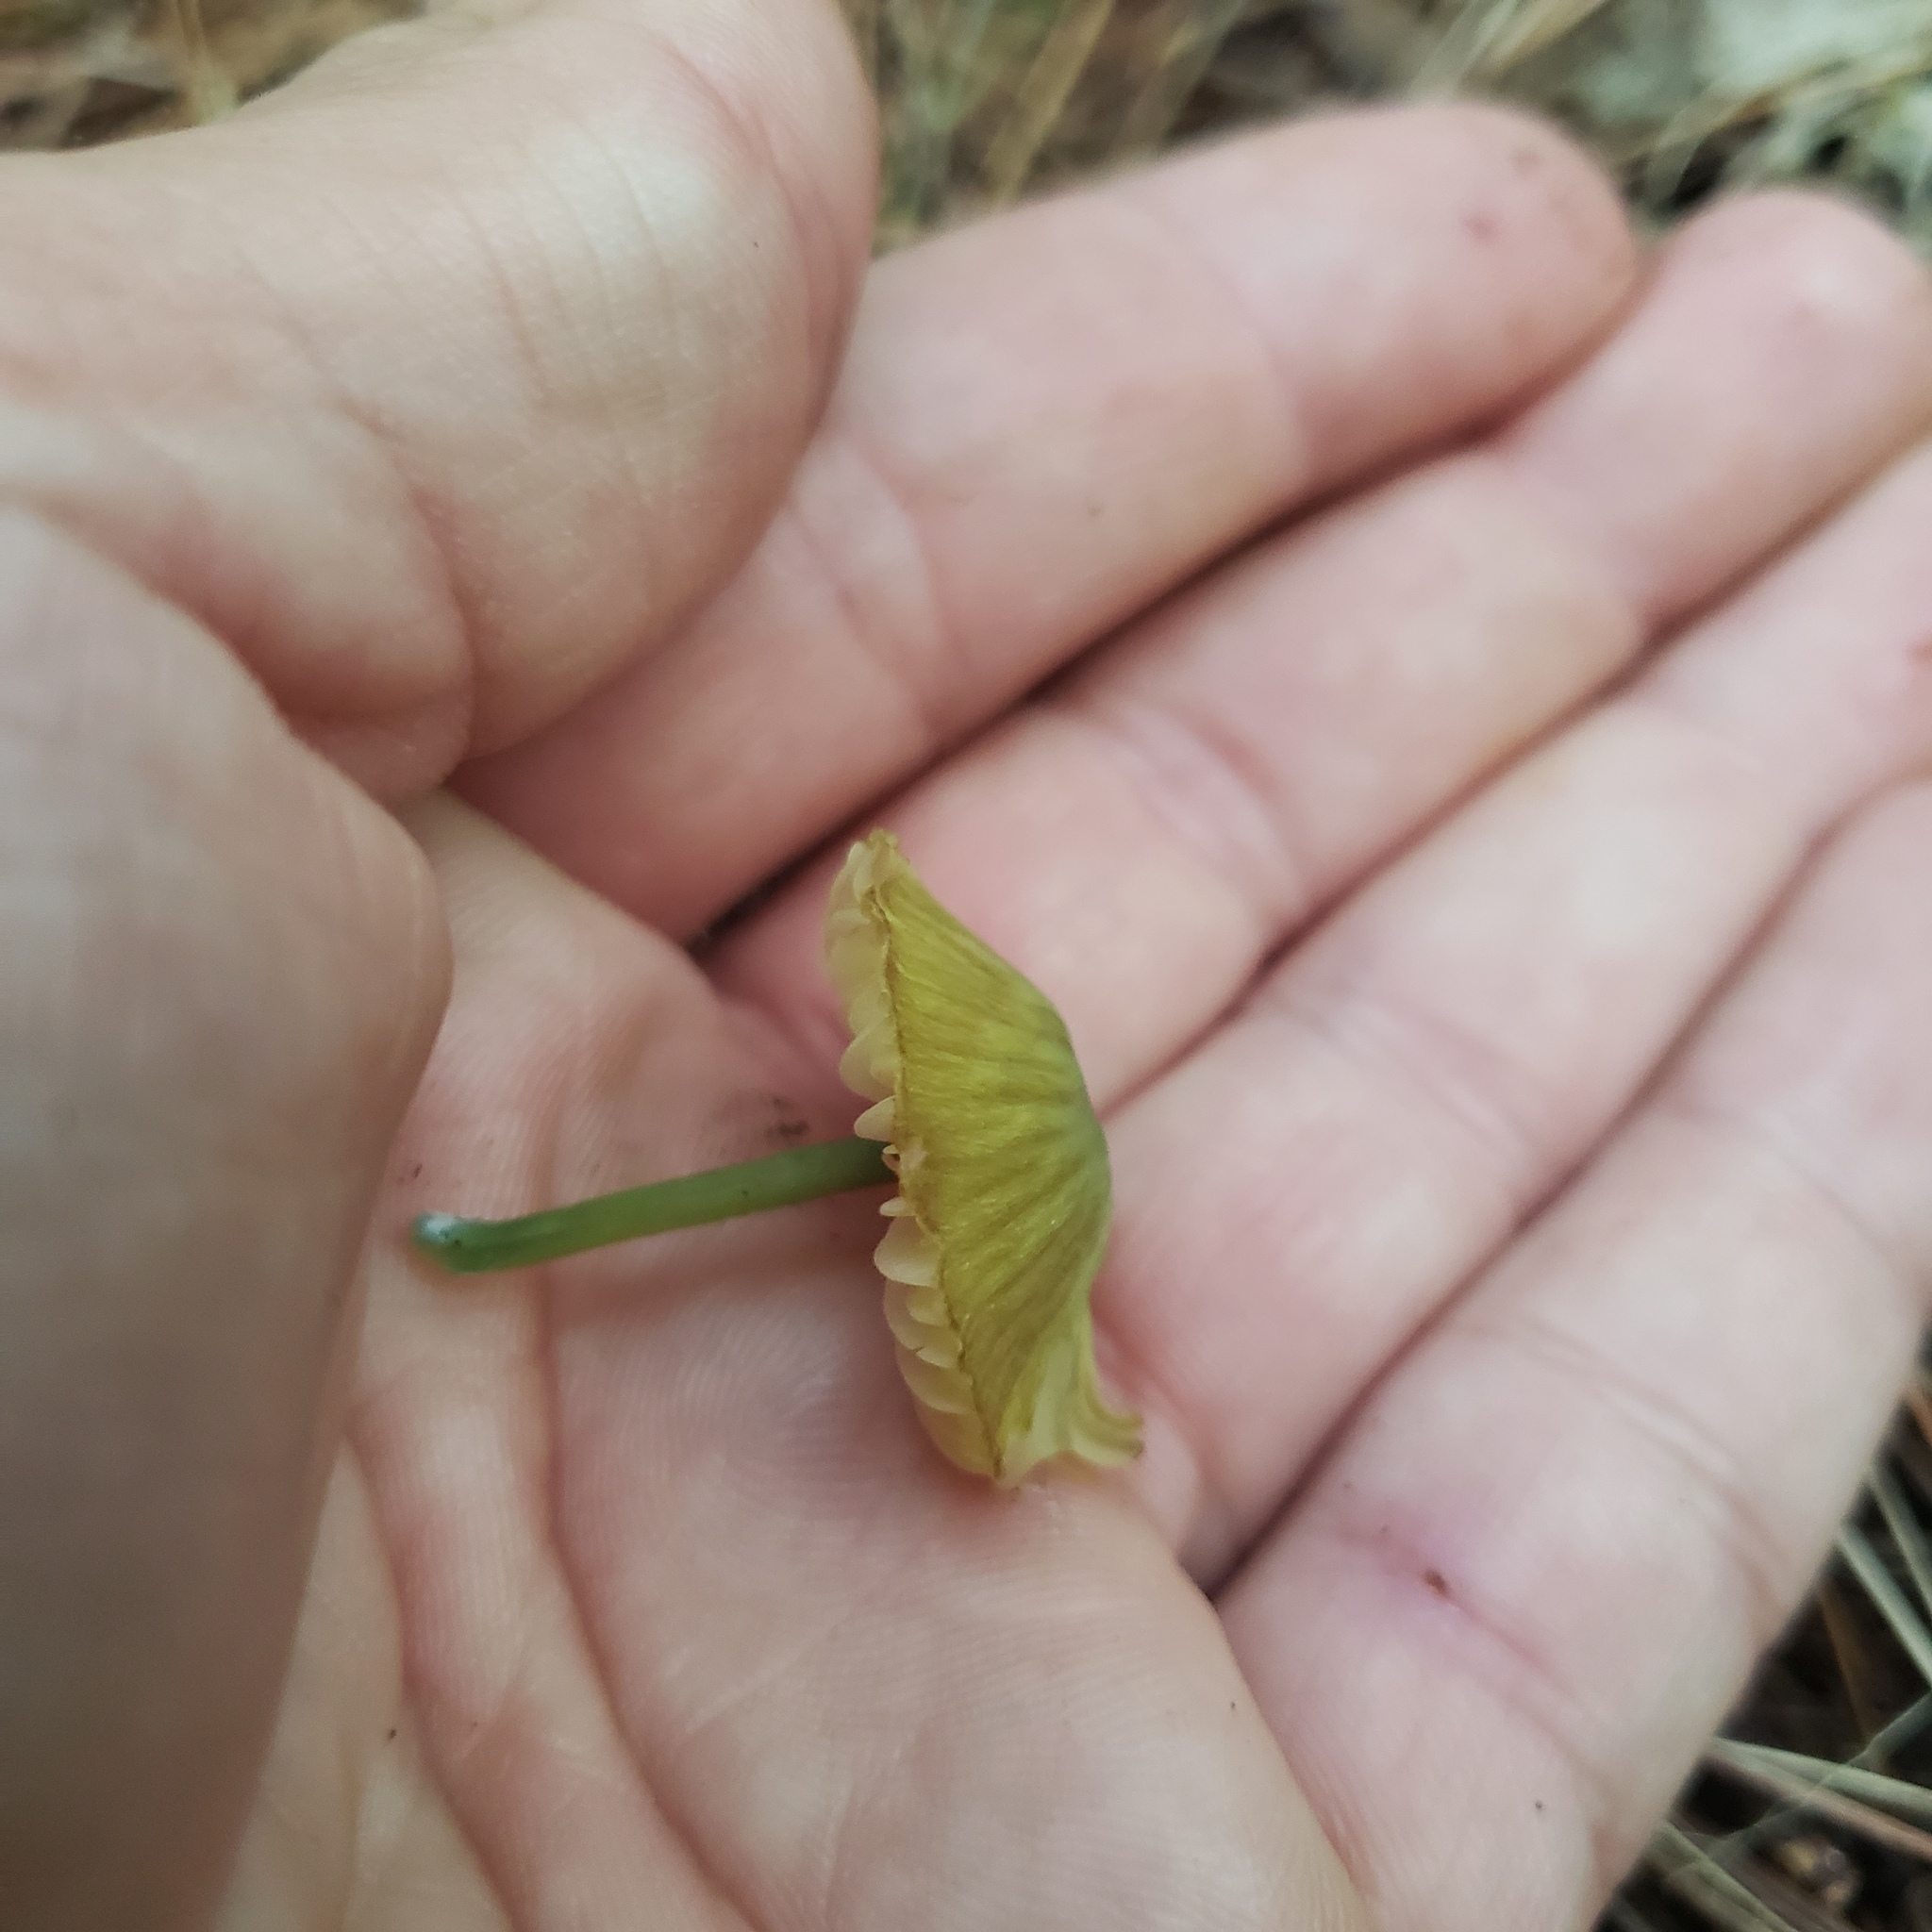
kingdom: Fungi
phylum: Basidiomycota
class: Agaricomycetes
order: Agaricales
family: Hygrophoraceae
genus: Gliophorus
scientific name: Gliophorus psittacinus
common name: Parrot wax-cap
